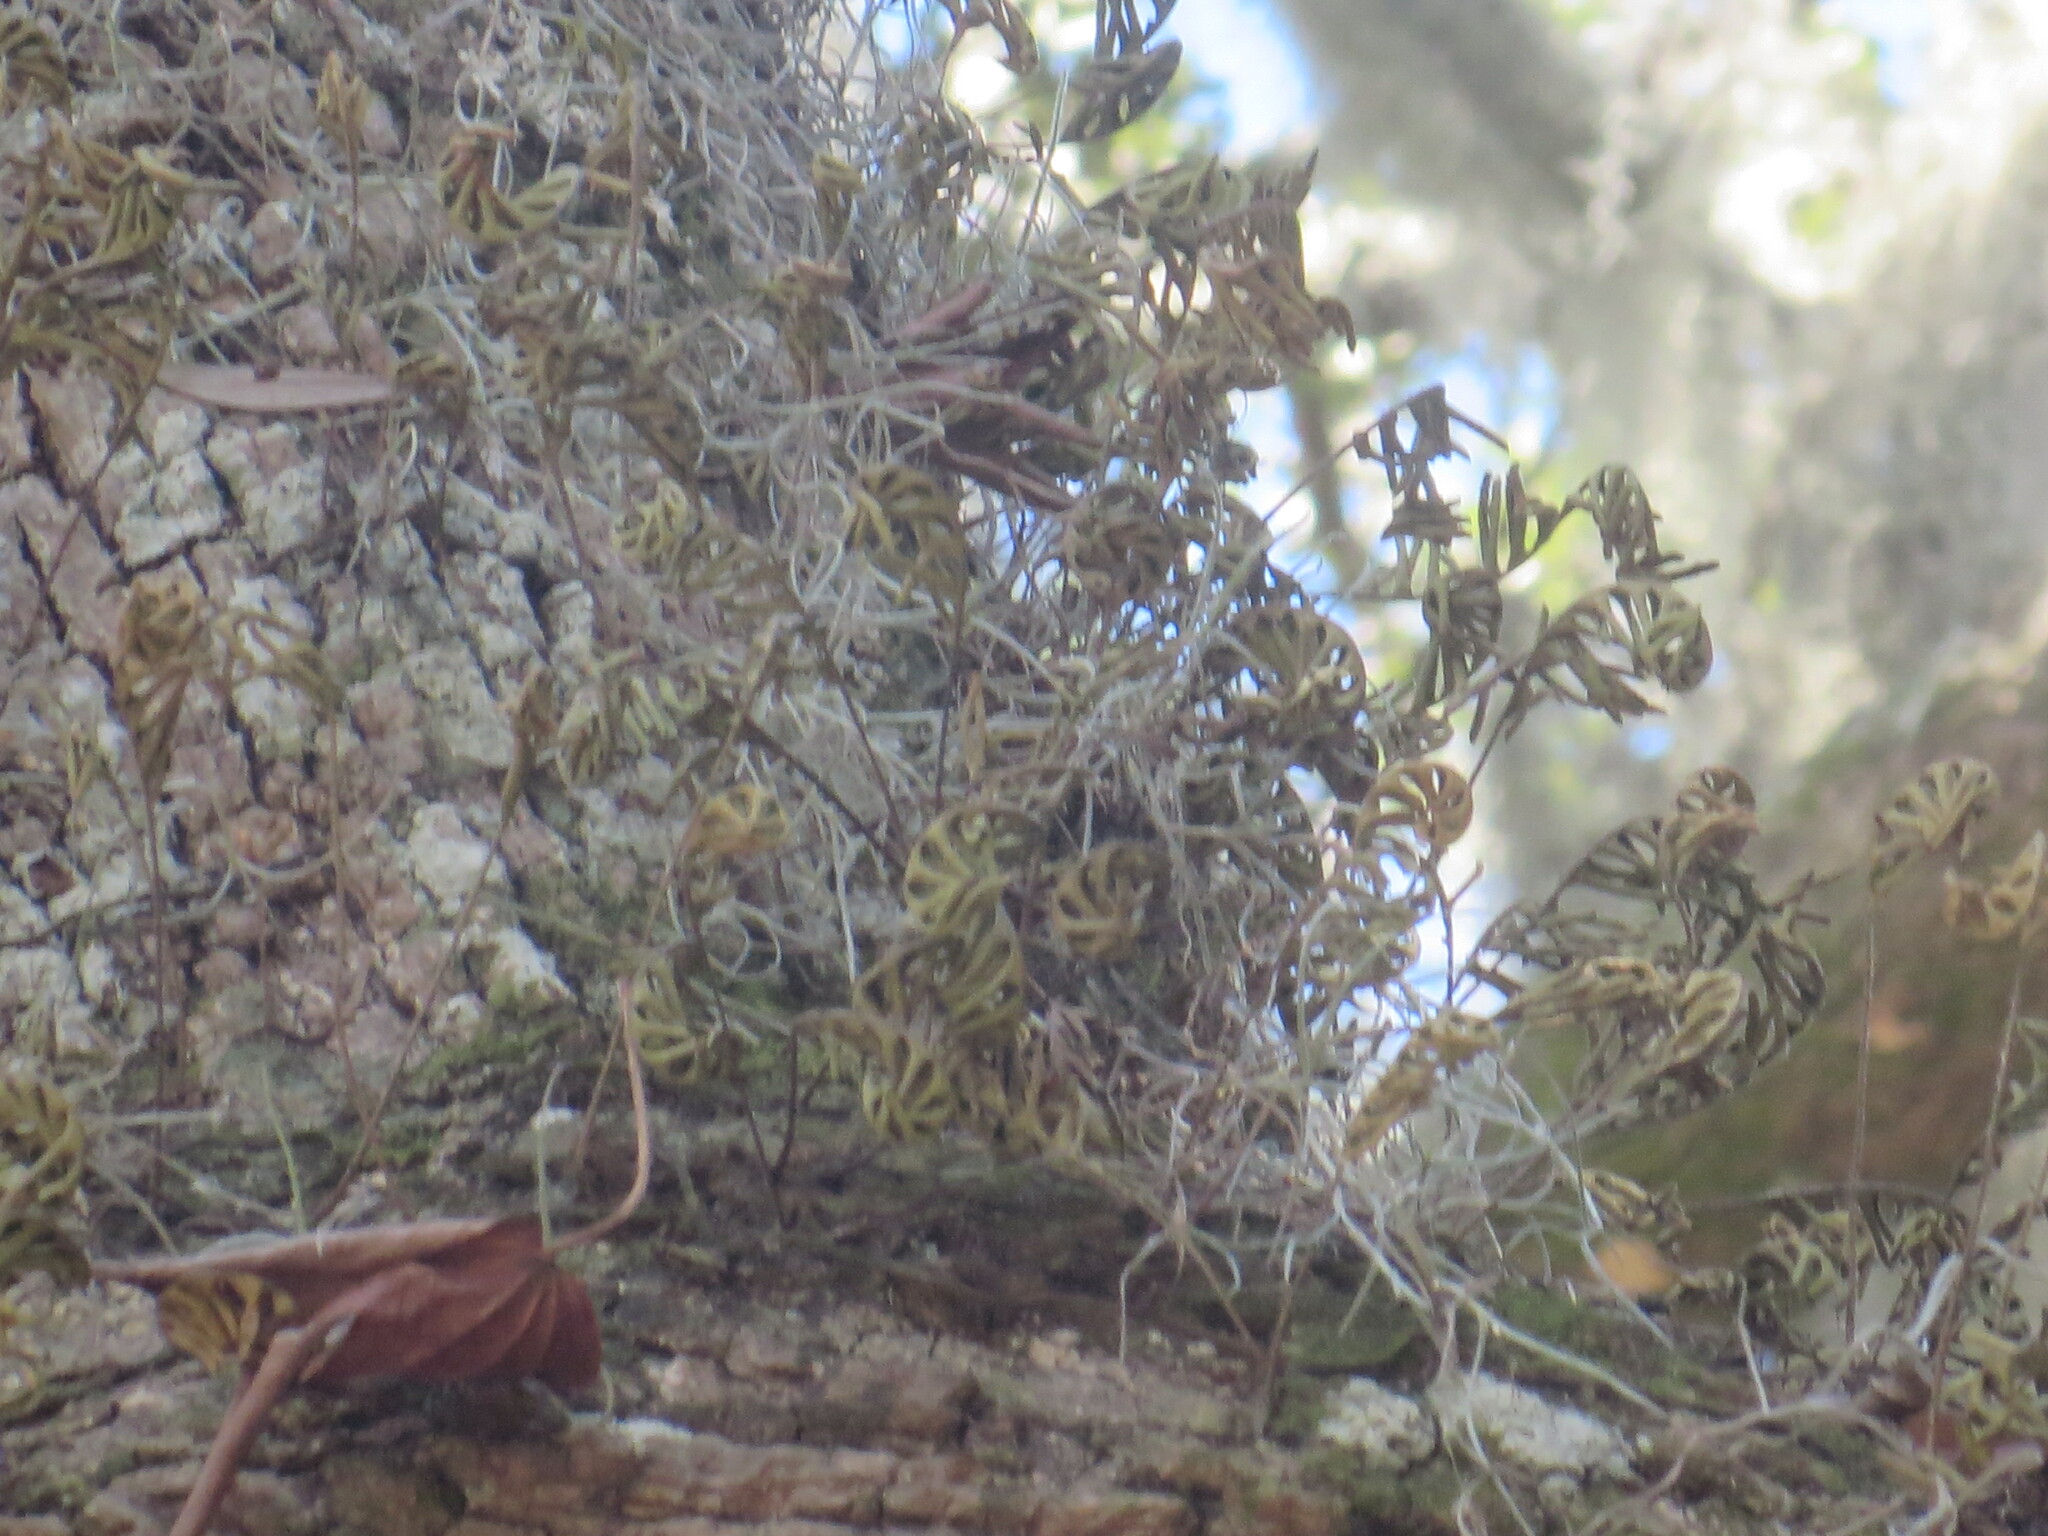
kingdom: Plantae
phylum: Tracheophyta
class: Polypodiopsida
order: Polypodiales
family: Polypodiaceae
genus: Pleopeltis
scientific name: Pleopeltis michauxiana
